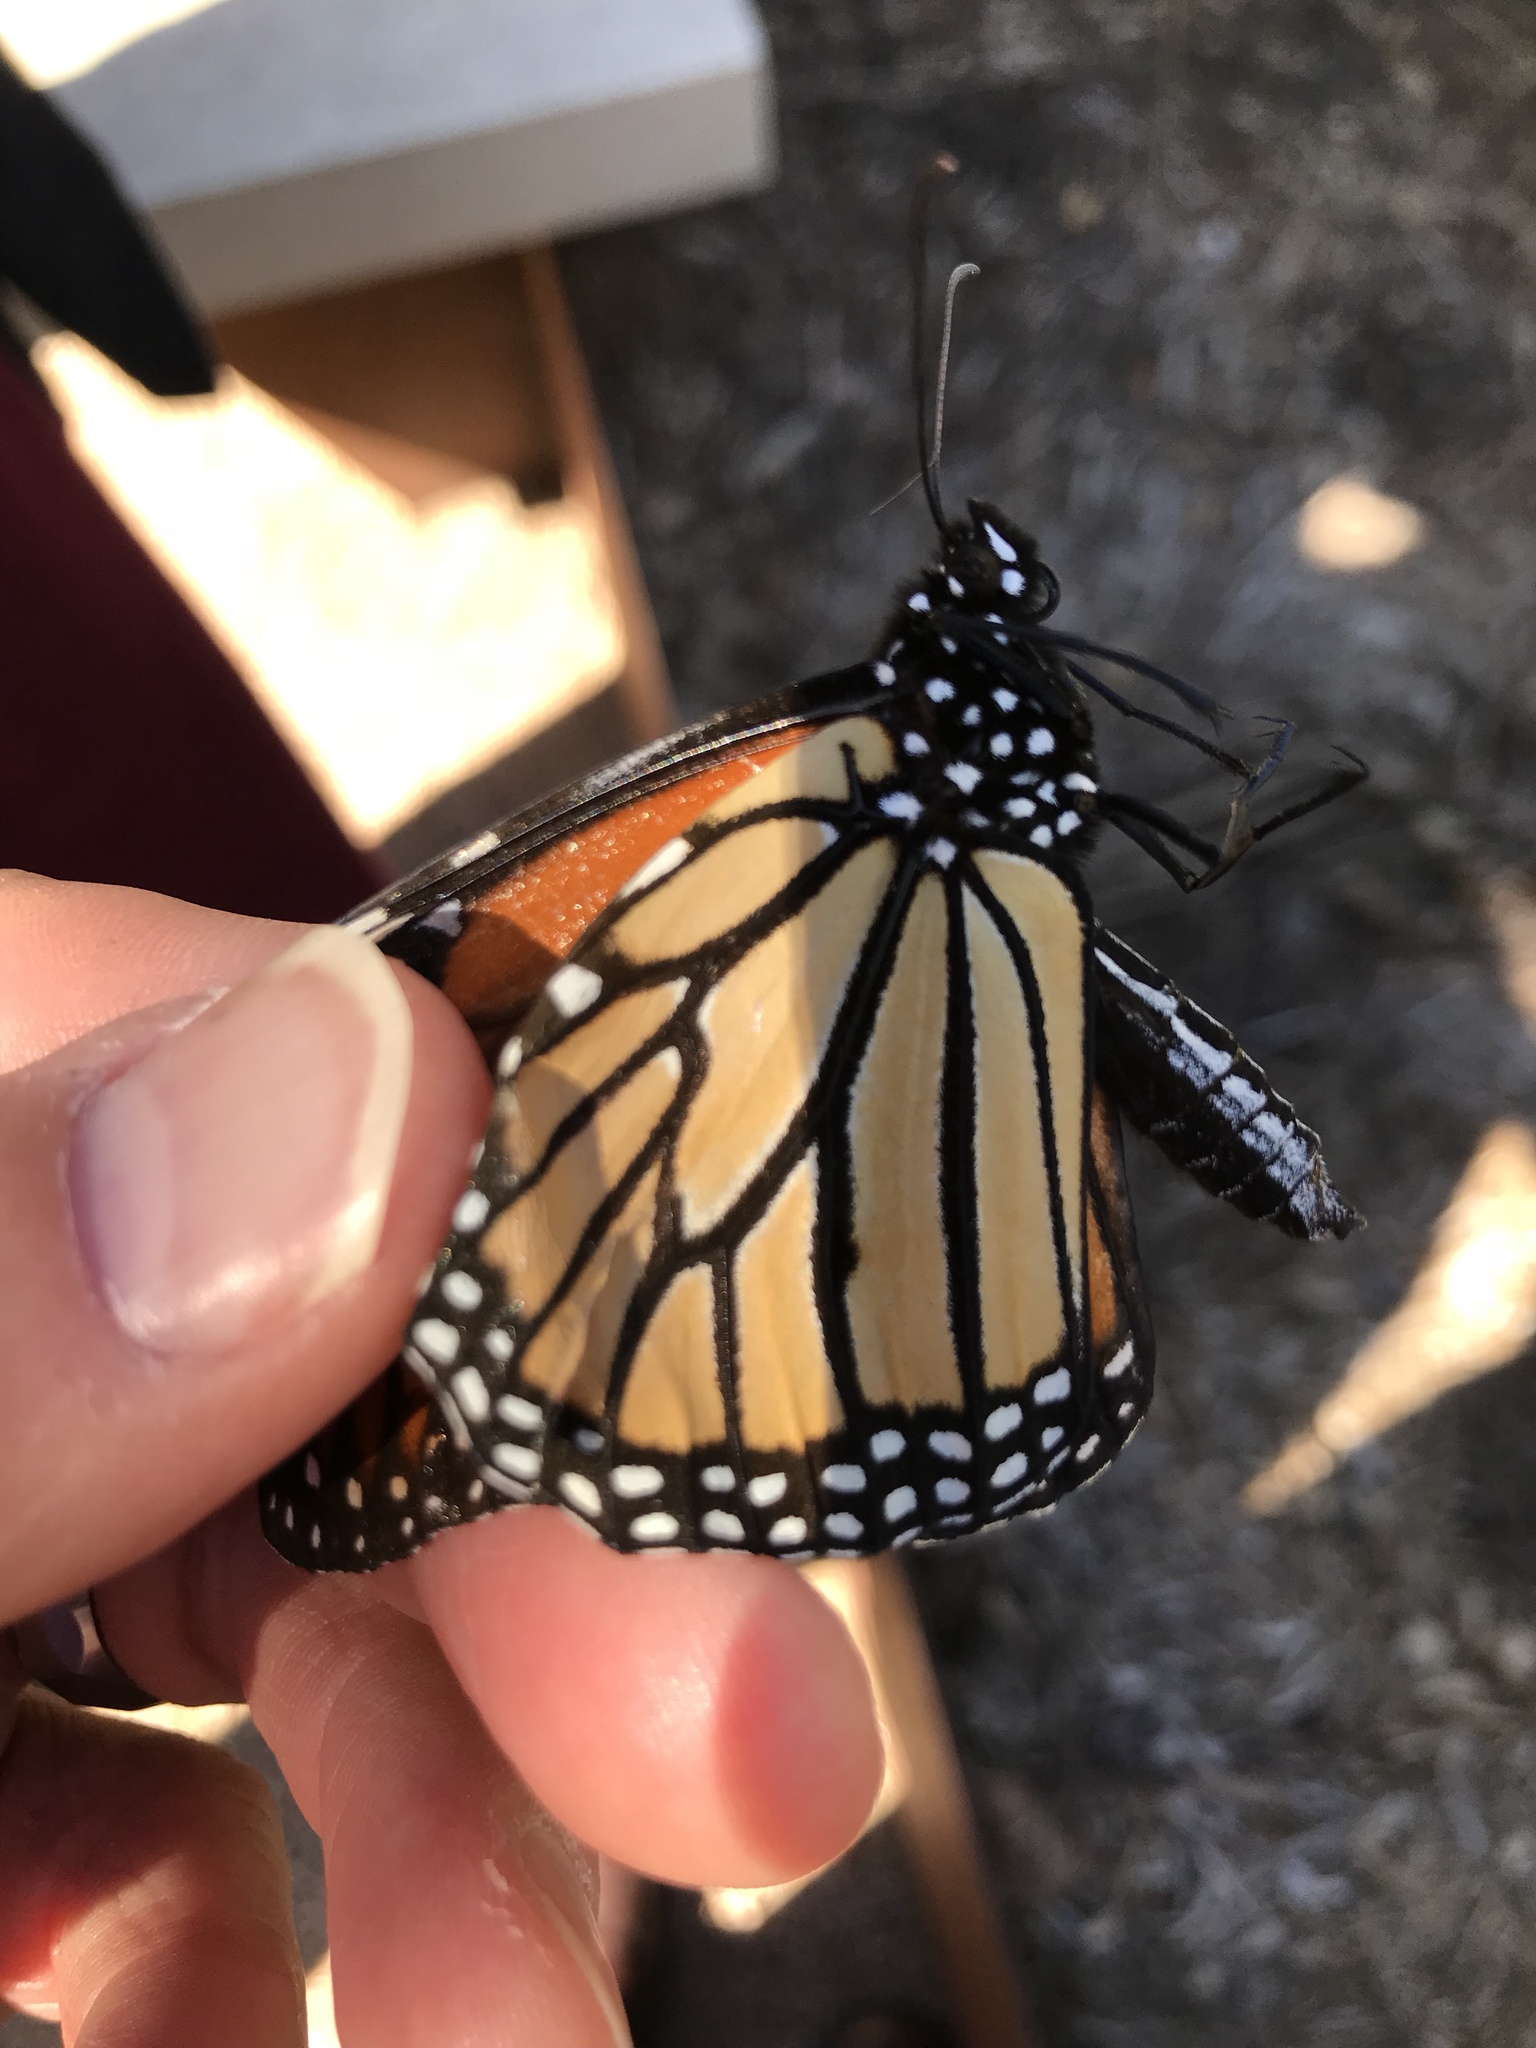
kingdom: Animalia
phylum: Arthropoda
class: Insecta
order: Lepidoptera
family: Nymphalidae
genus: Danaus
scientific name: Danaus plexippus
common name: Monarch
